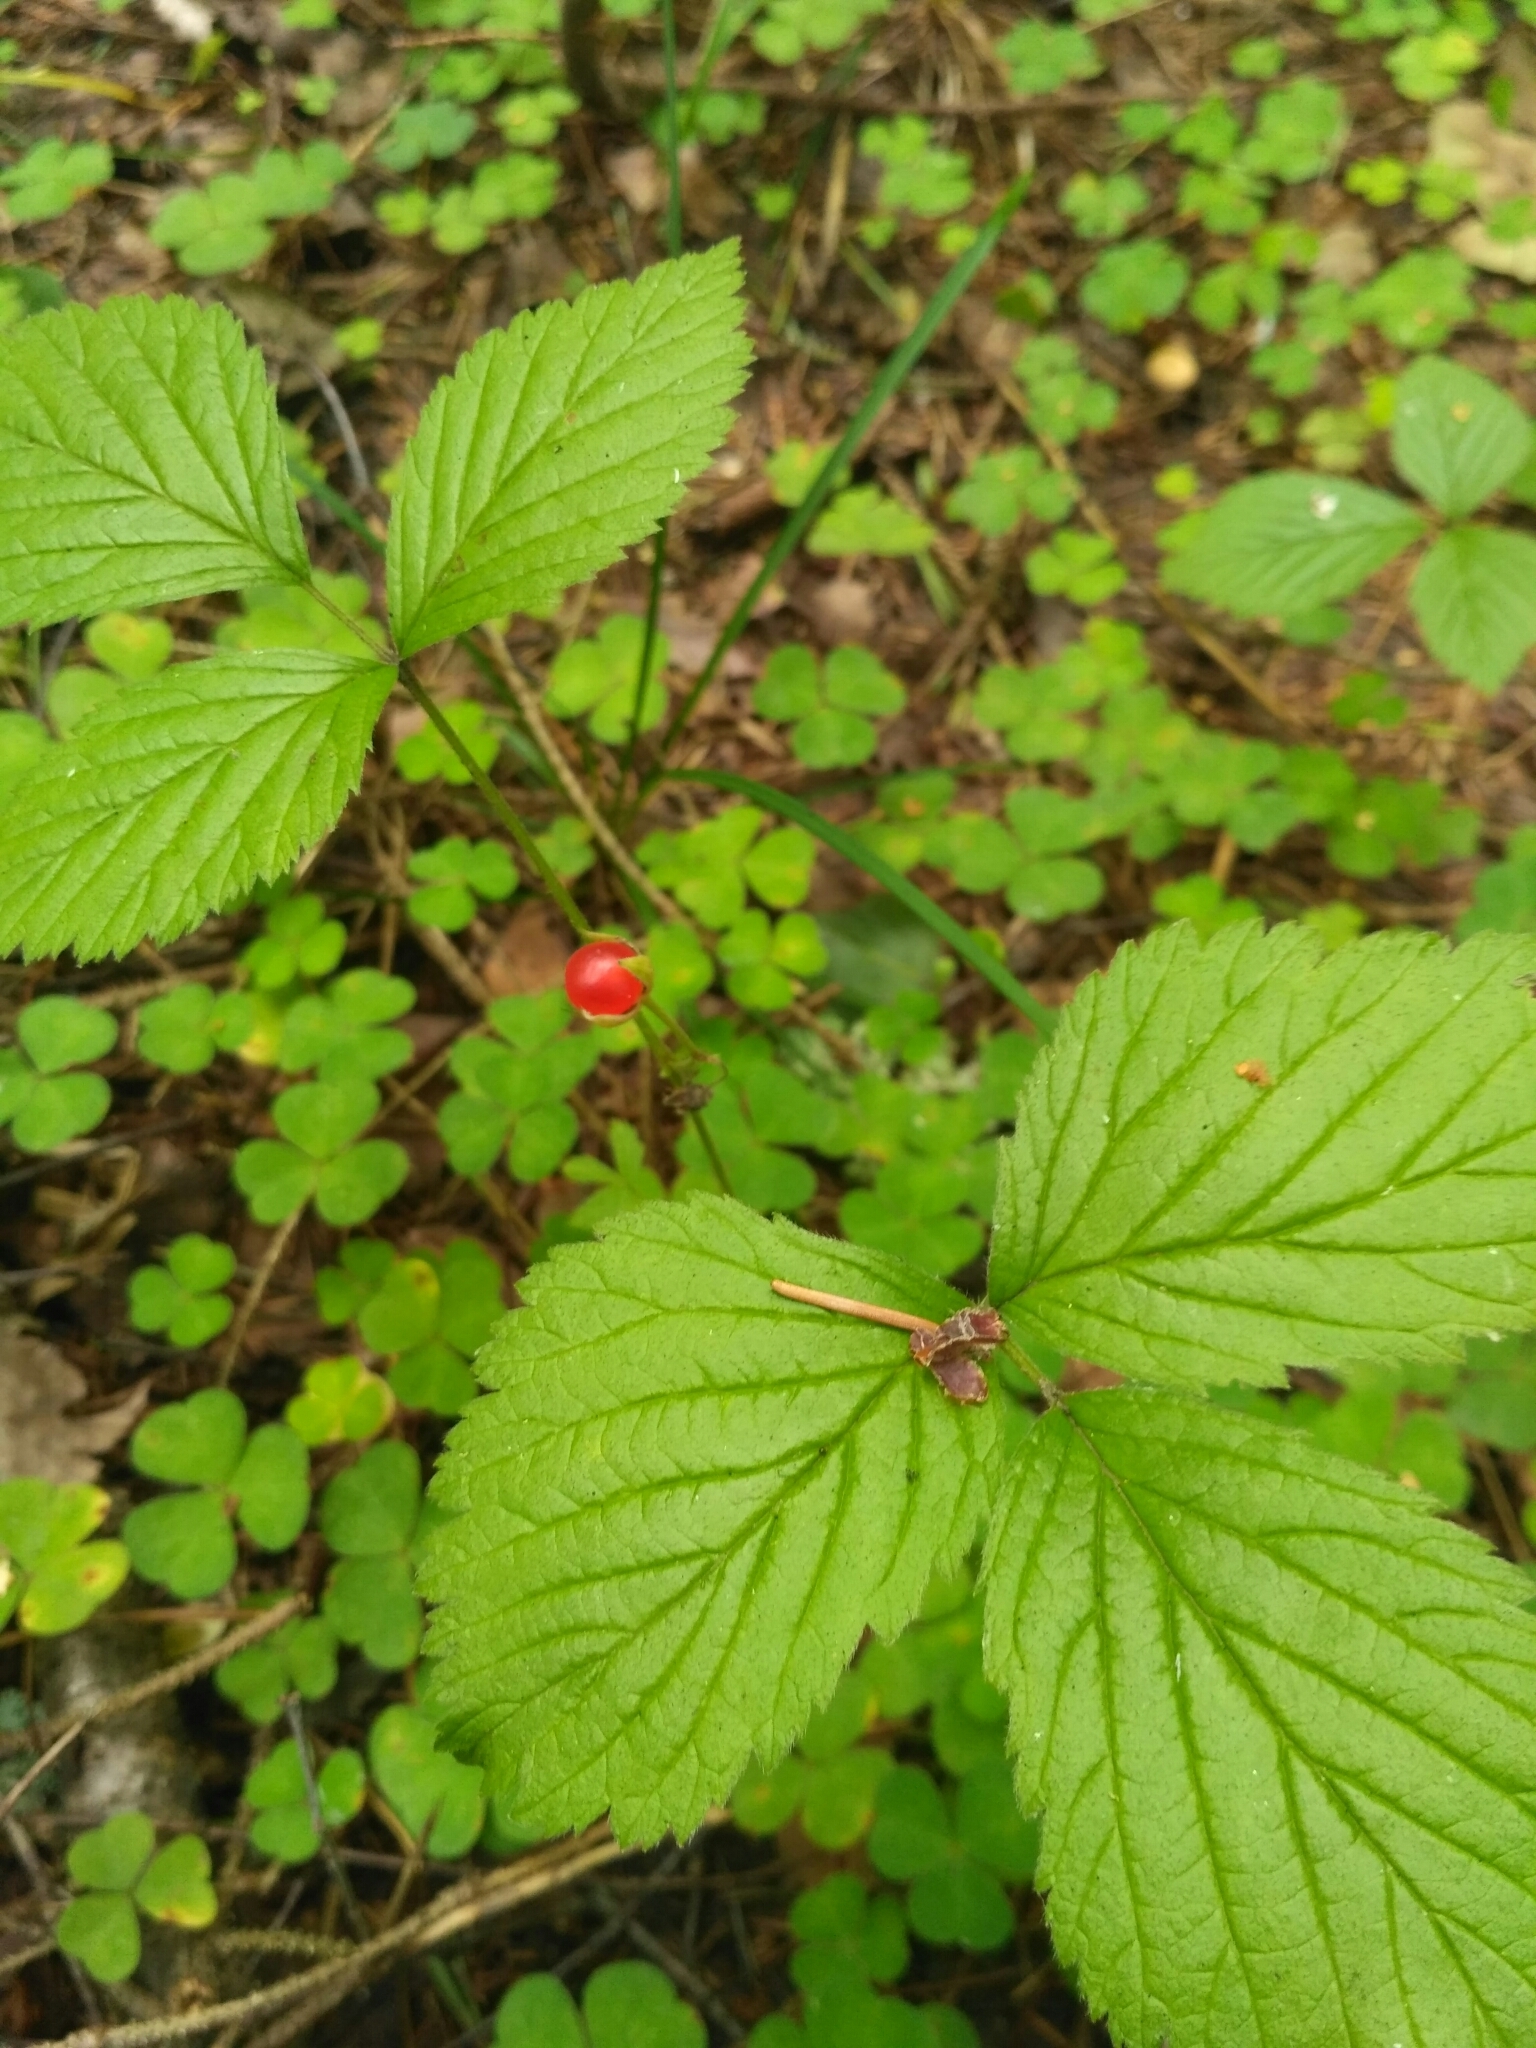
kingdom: Plantae
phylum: Tracheophyta
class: Magnoliopsida
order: Rosales
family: Rosaceae
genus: Rubus
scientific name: Rubus saxatilis
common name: Stone bramble
